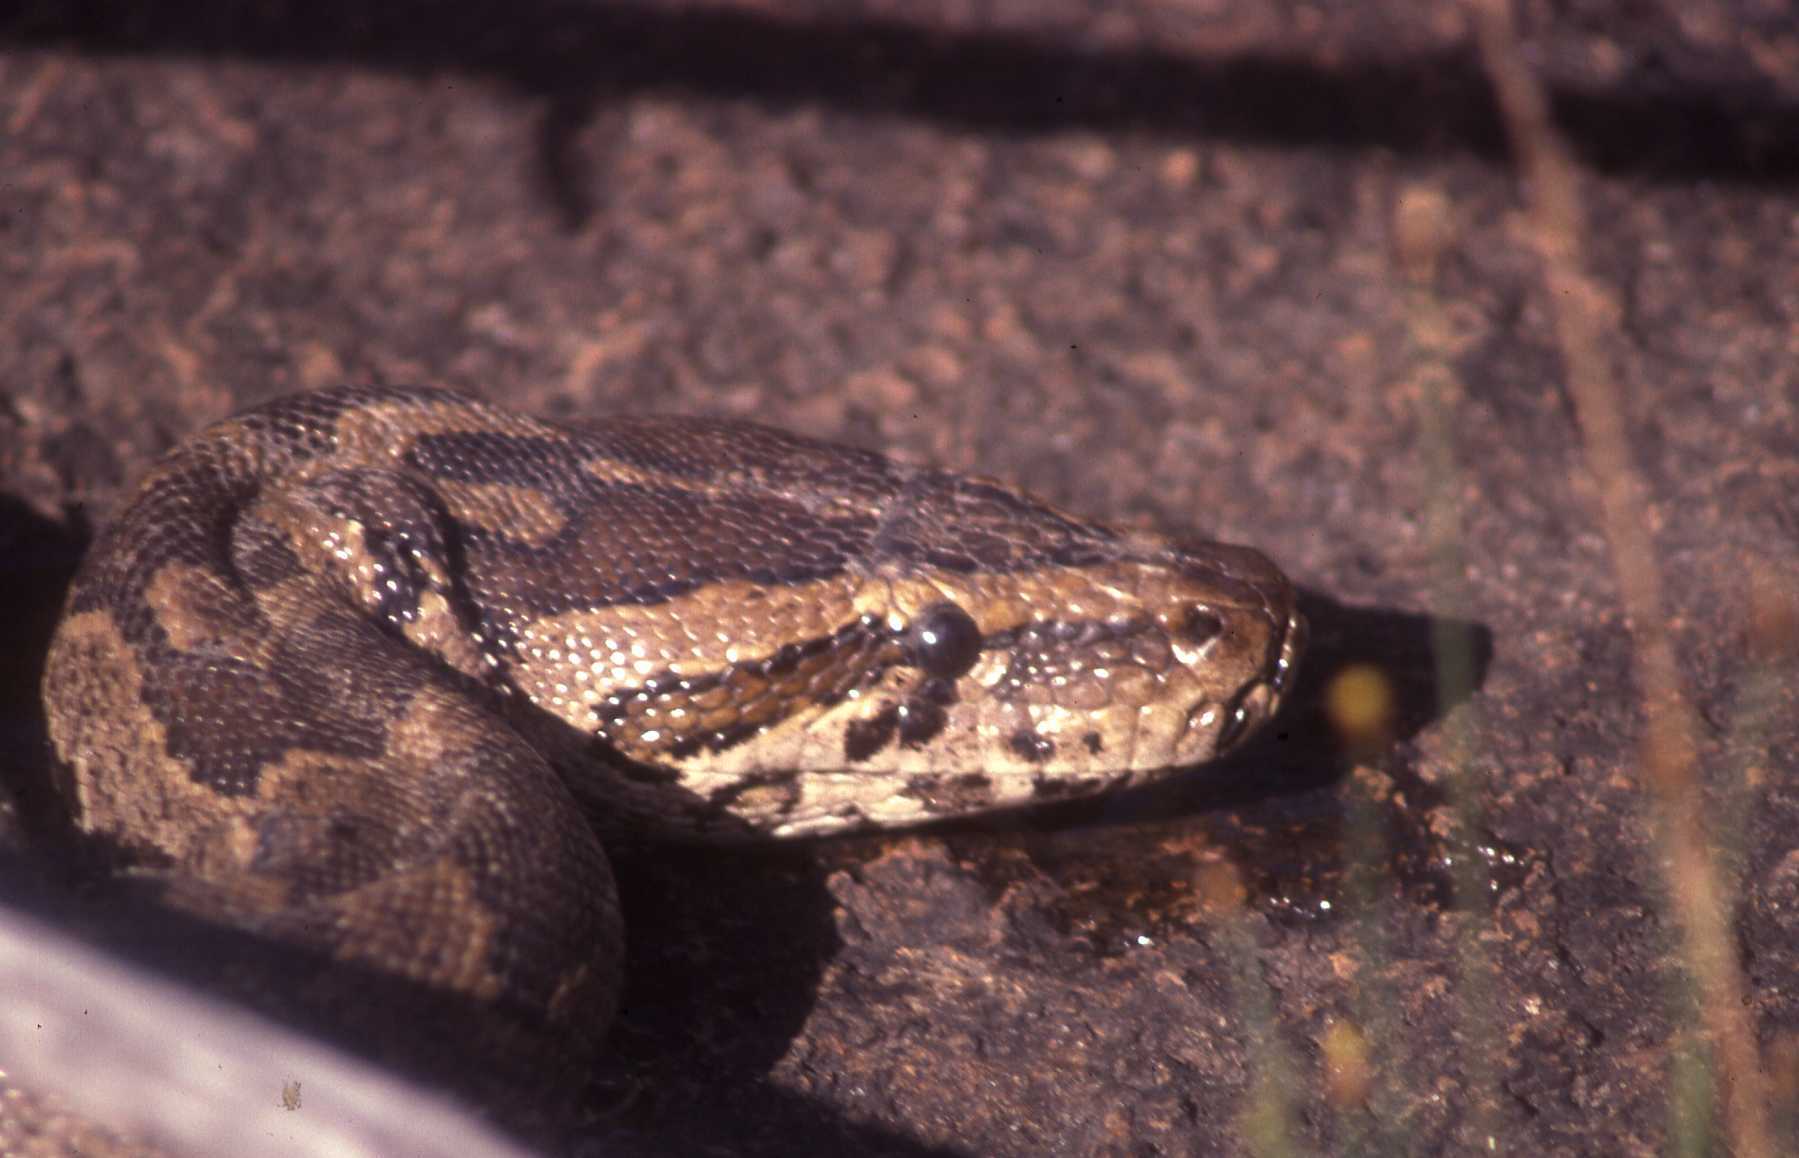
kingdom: Animalia
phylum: Chordata
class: Squamata
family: Pythonidae
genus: Python
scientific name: Python natalensis
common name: Southern african rock python
